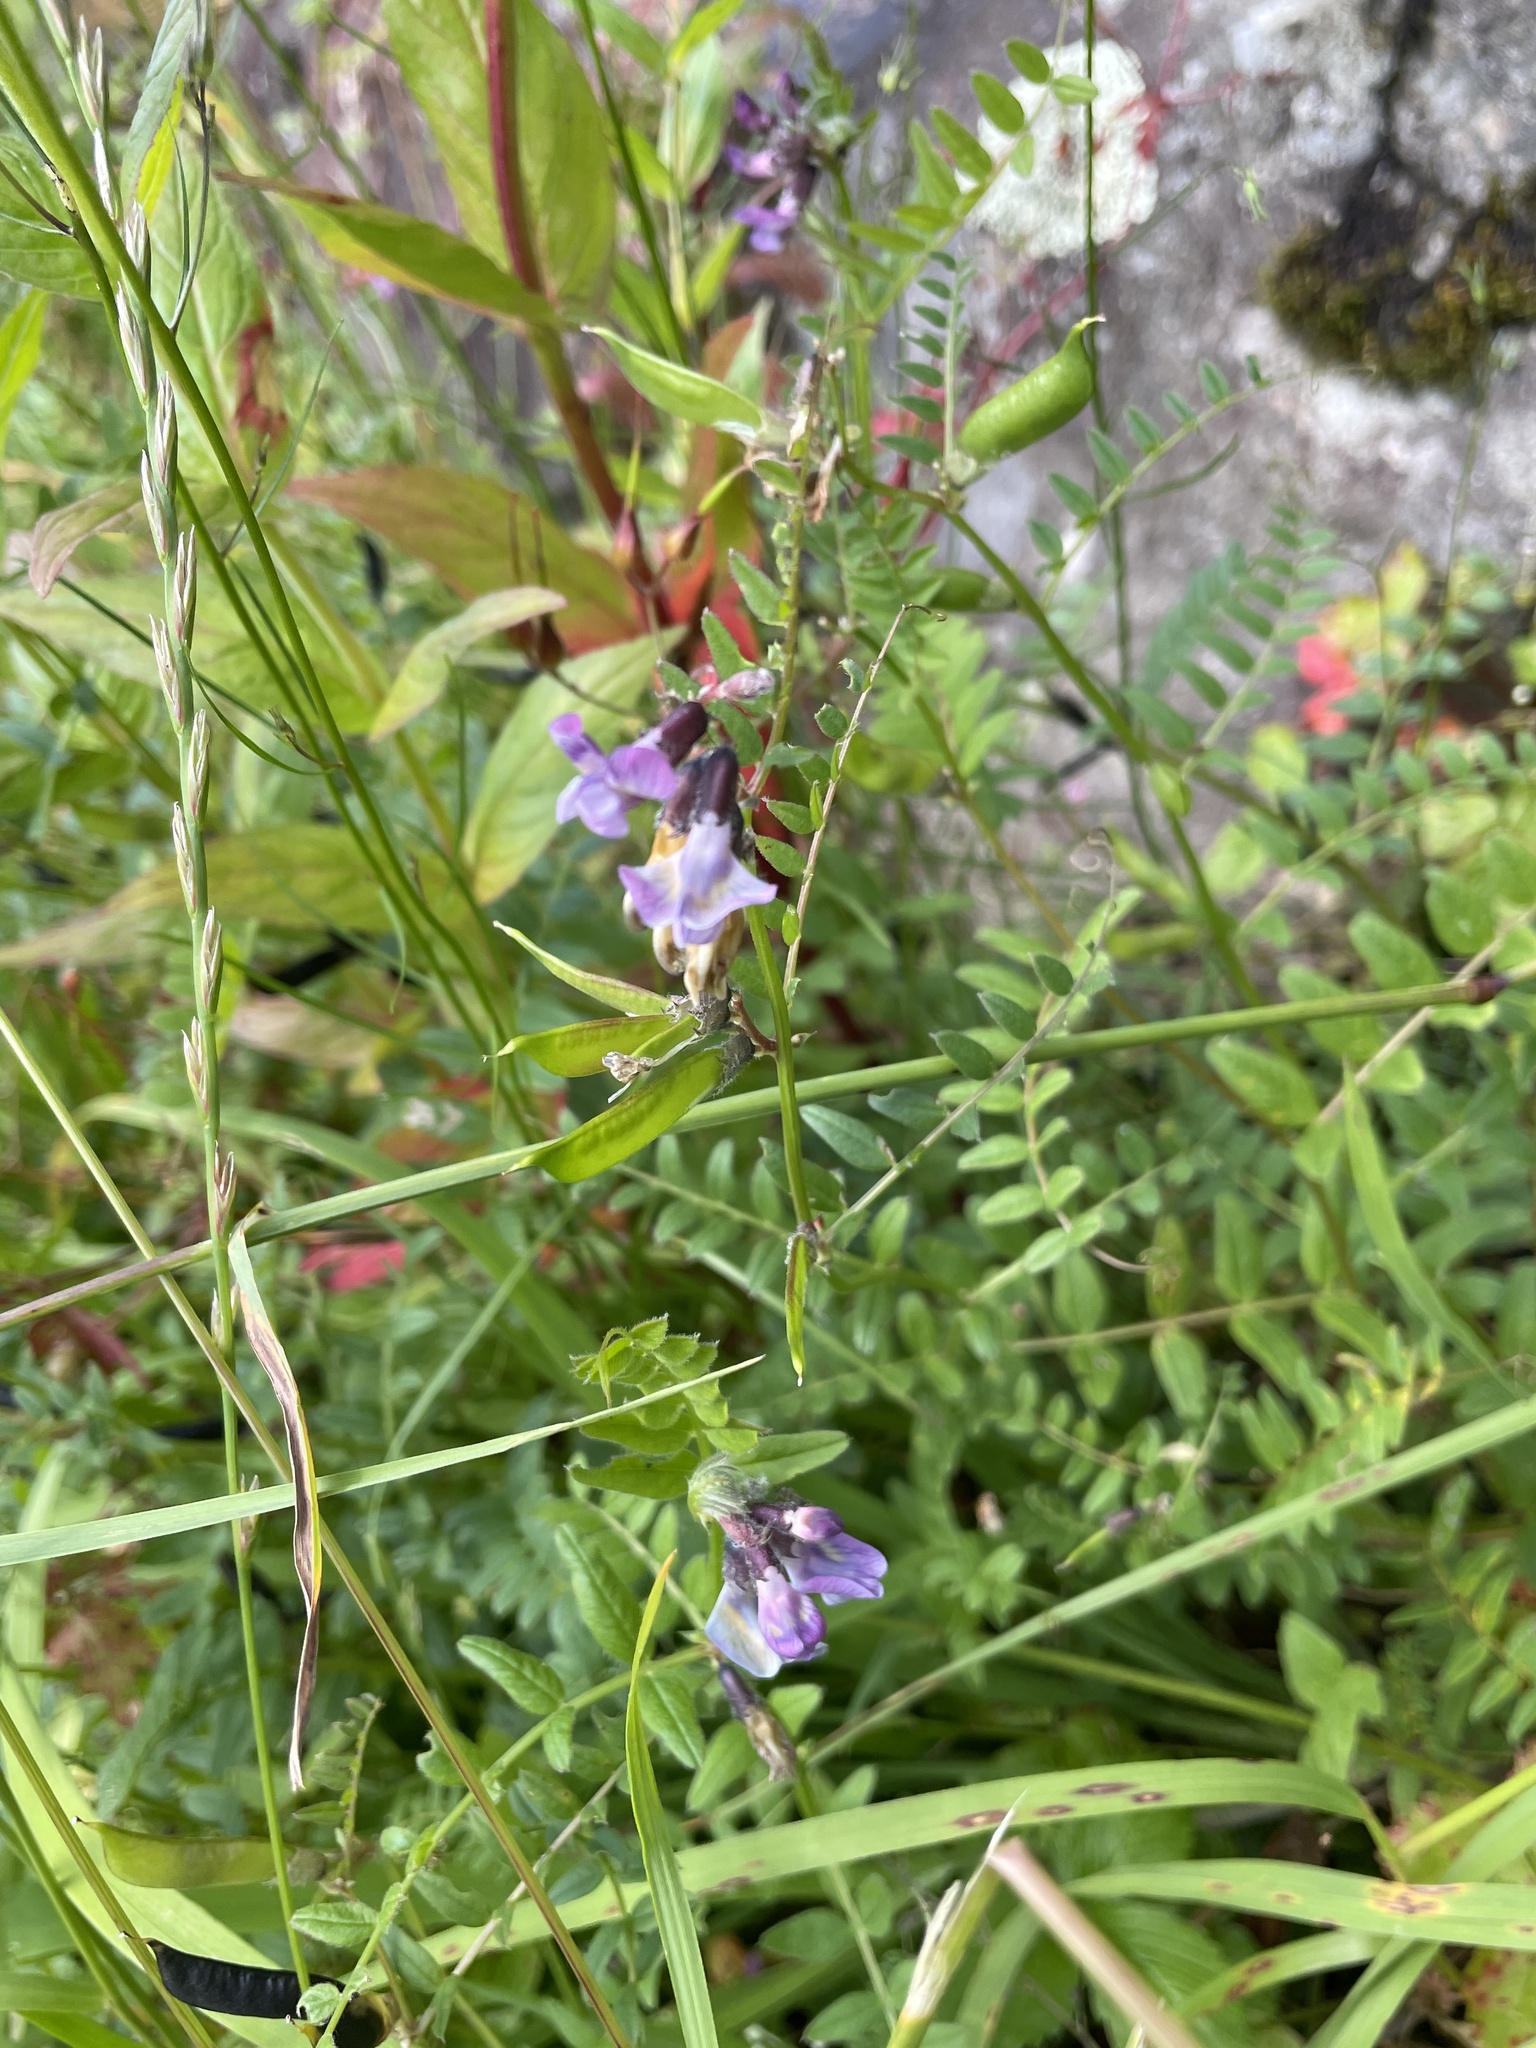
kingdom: Plantae
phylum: Tracheophyta
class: Magnoliopsida
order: Fabales
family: Fabaceae
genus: Vicia
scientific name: Vicia sepium
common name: Bush vetch
